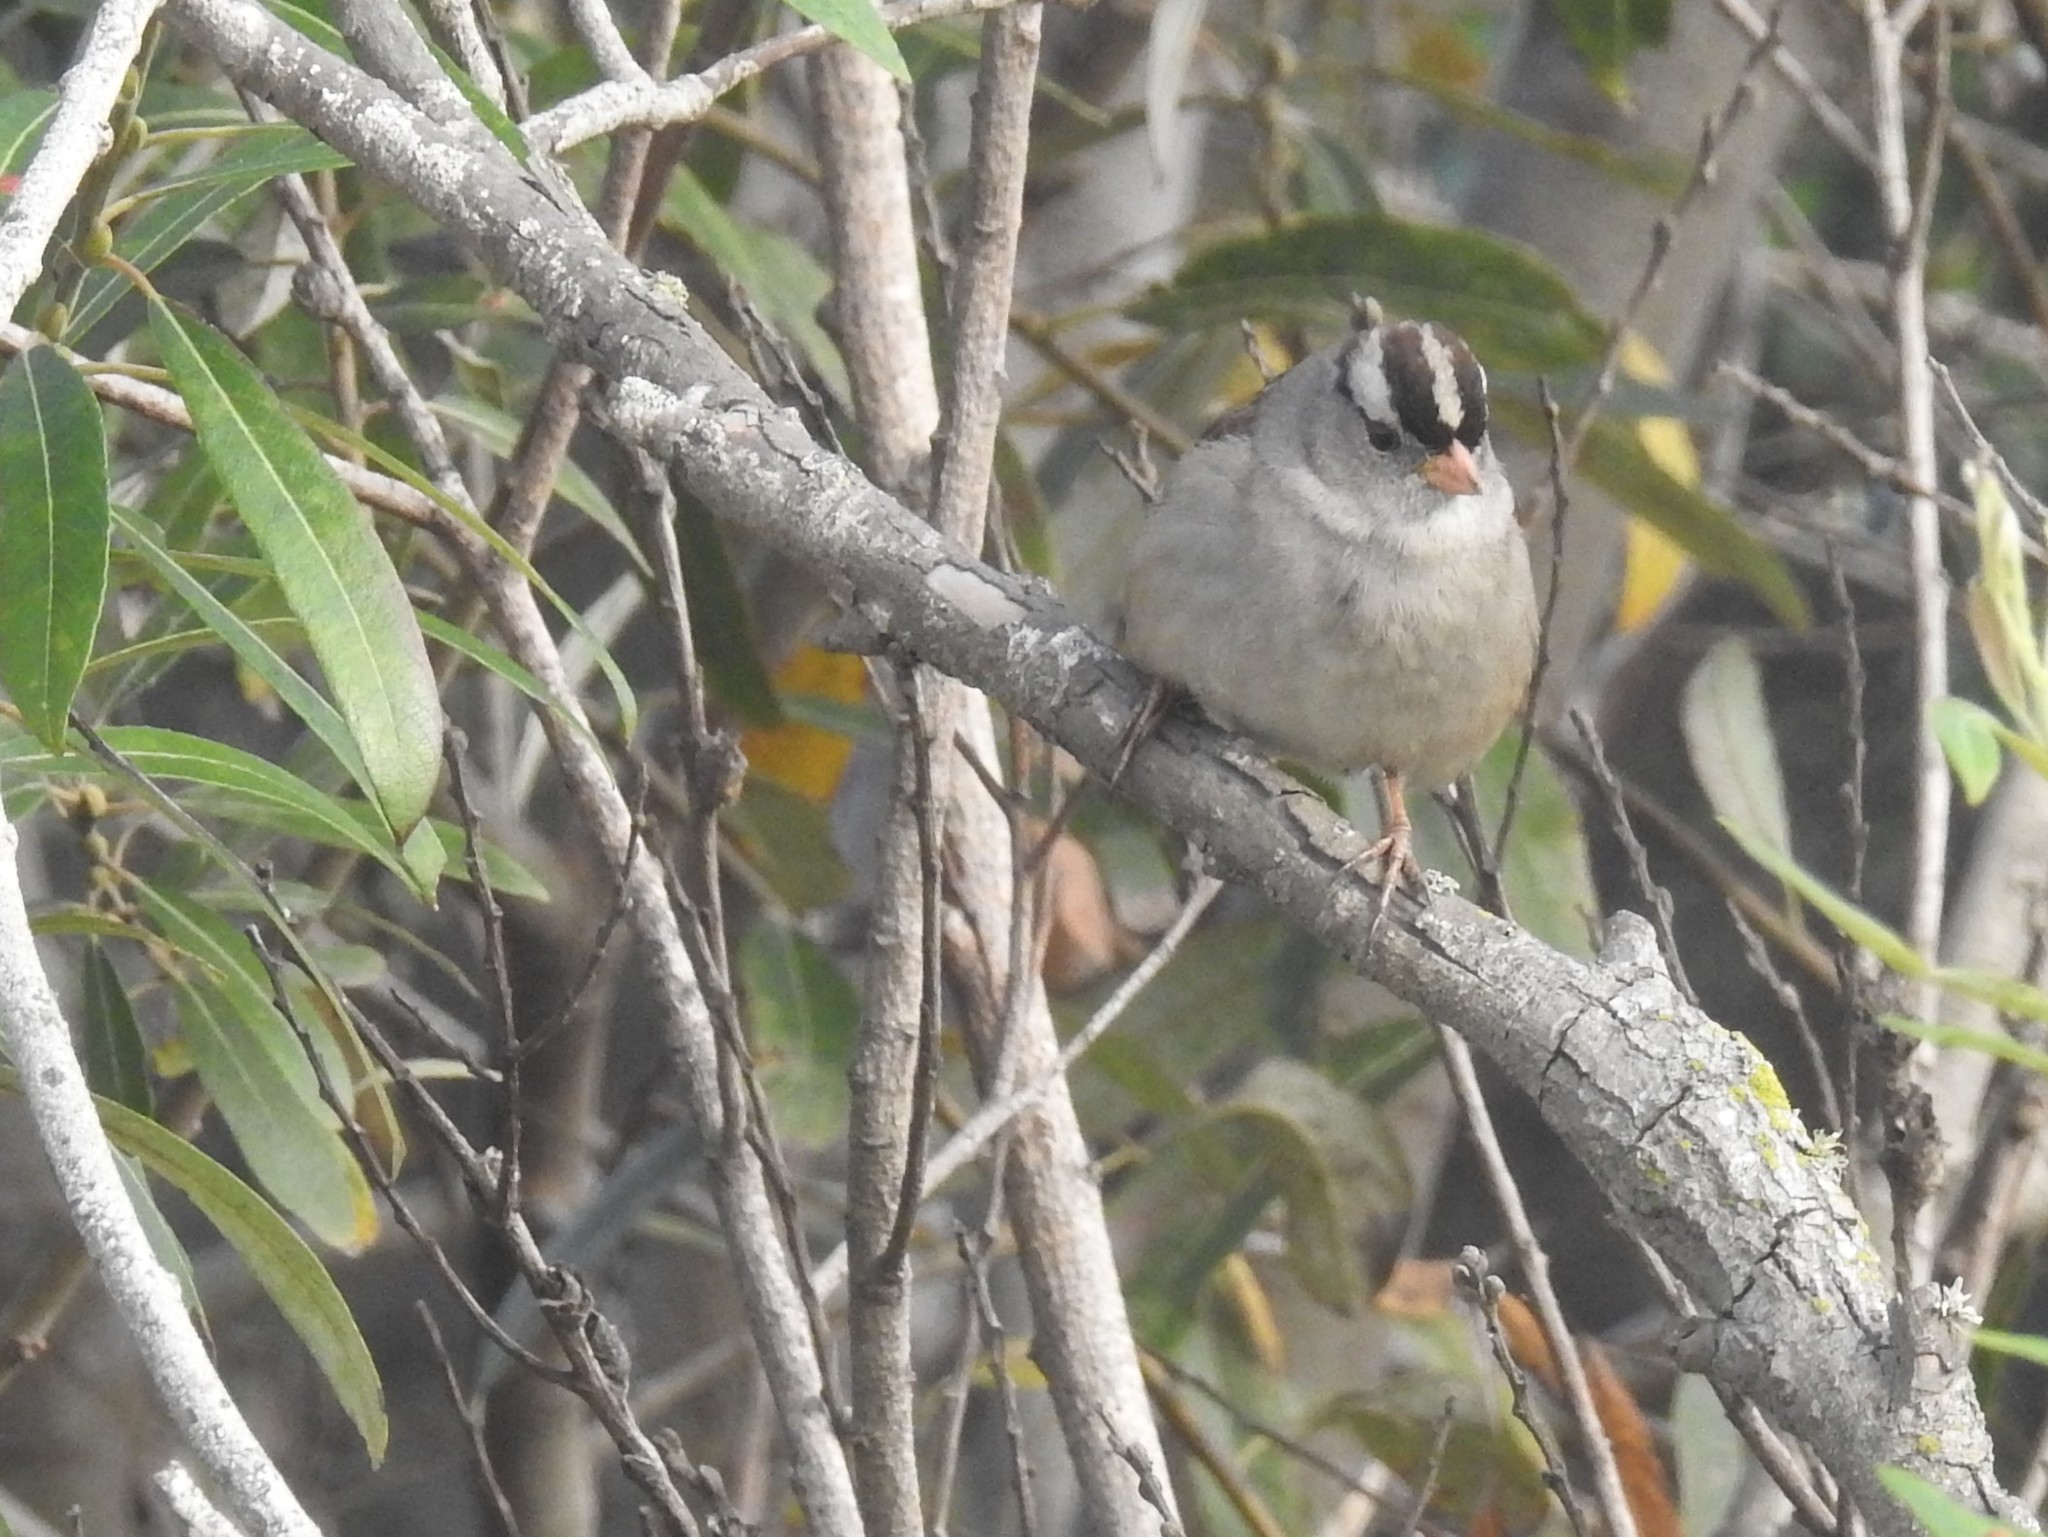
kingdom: Animalia
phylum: Chordata
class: Aves
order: Passeriformes
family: Passerellidae
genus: Zonotrichia
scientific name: Zonotrichia leucophrys
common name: White-crowned sparrow
